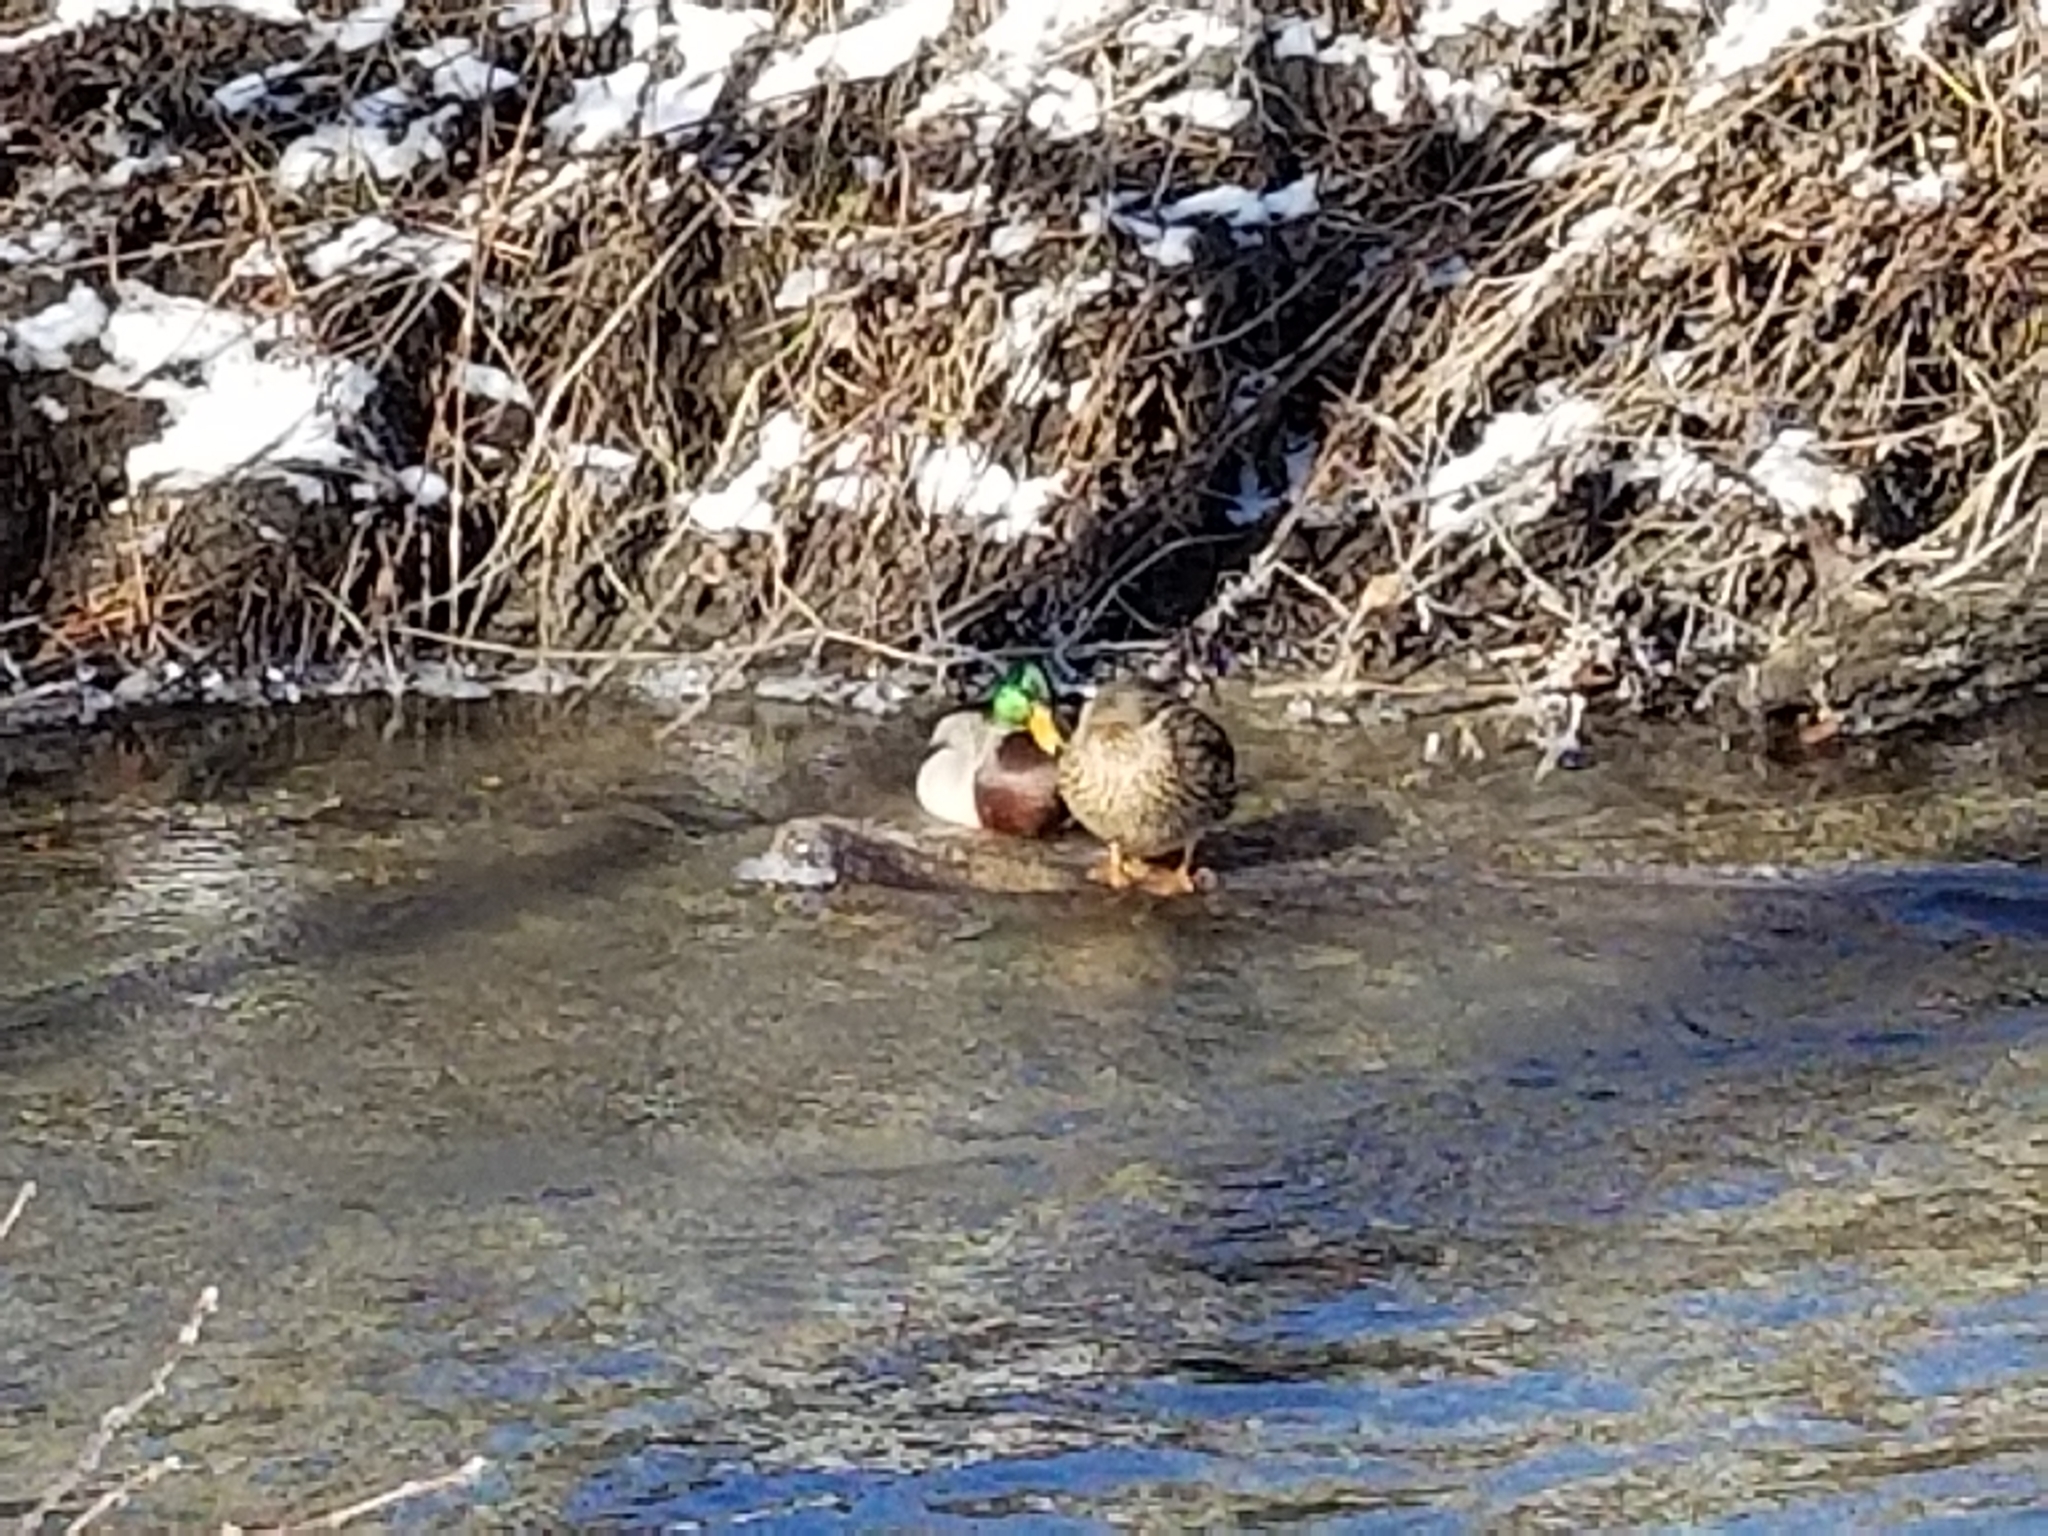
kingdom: Animalia
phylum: Chordata
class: Aves
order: Anseriformes
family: Anatidae
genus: Anas
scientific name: Anas platyrhynchos
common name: Mallard
